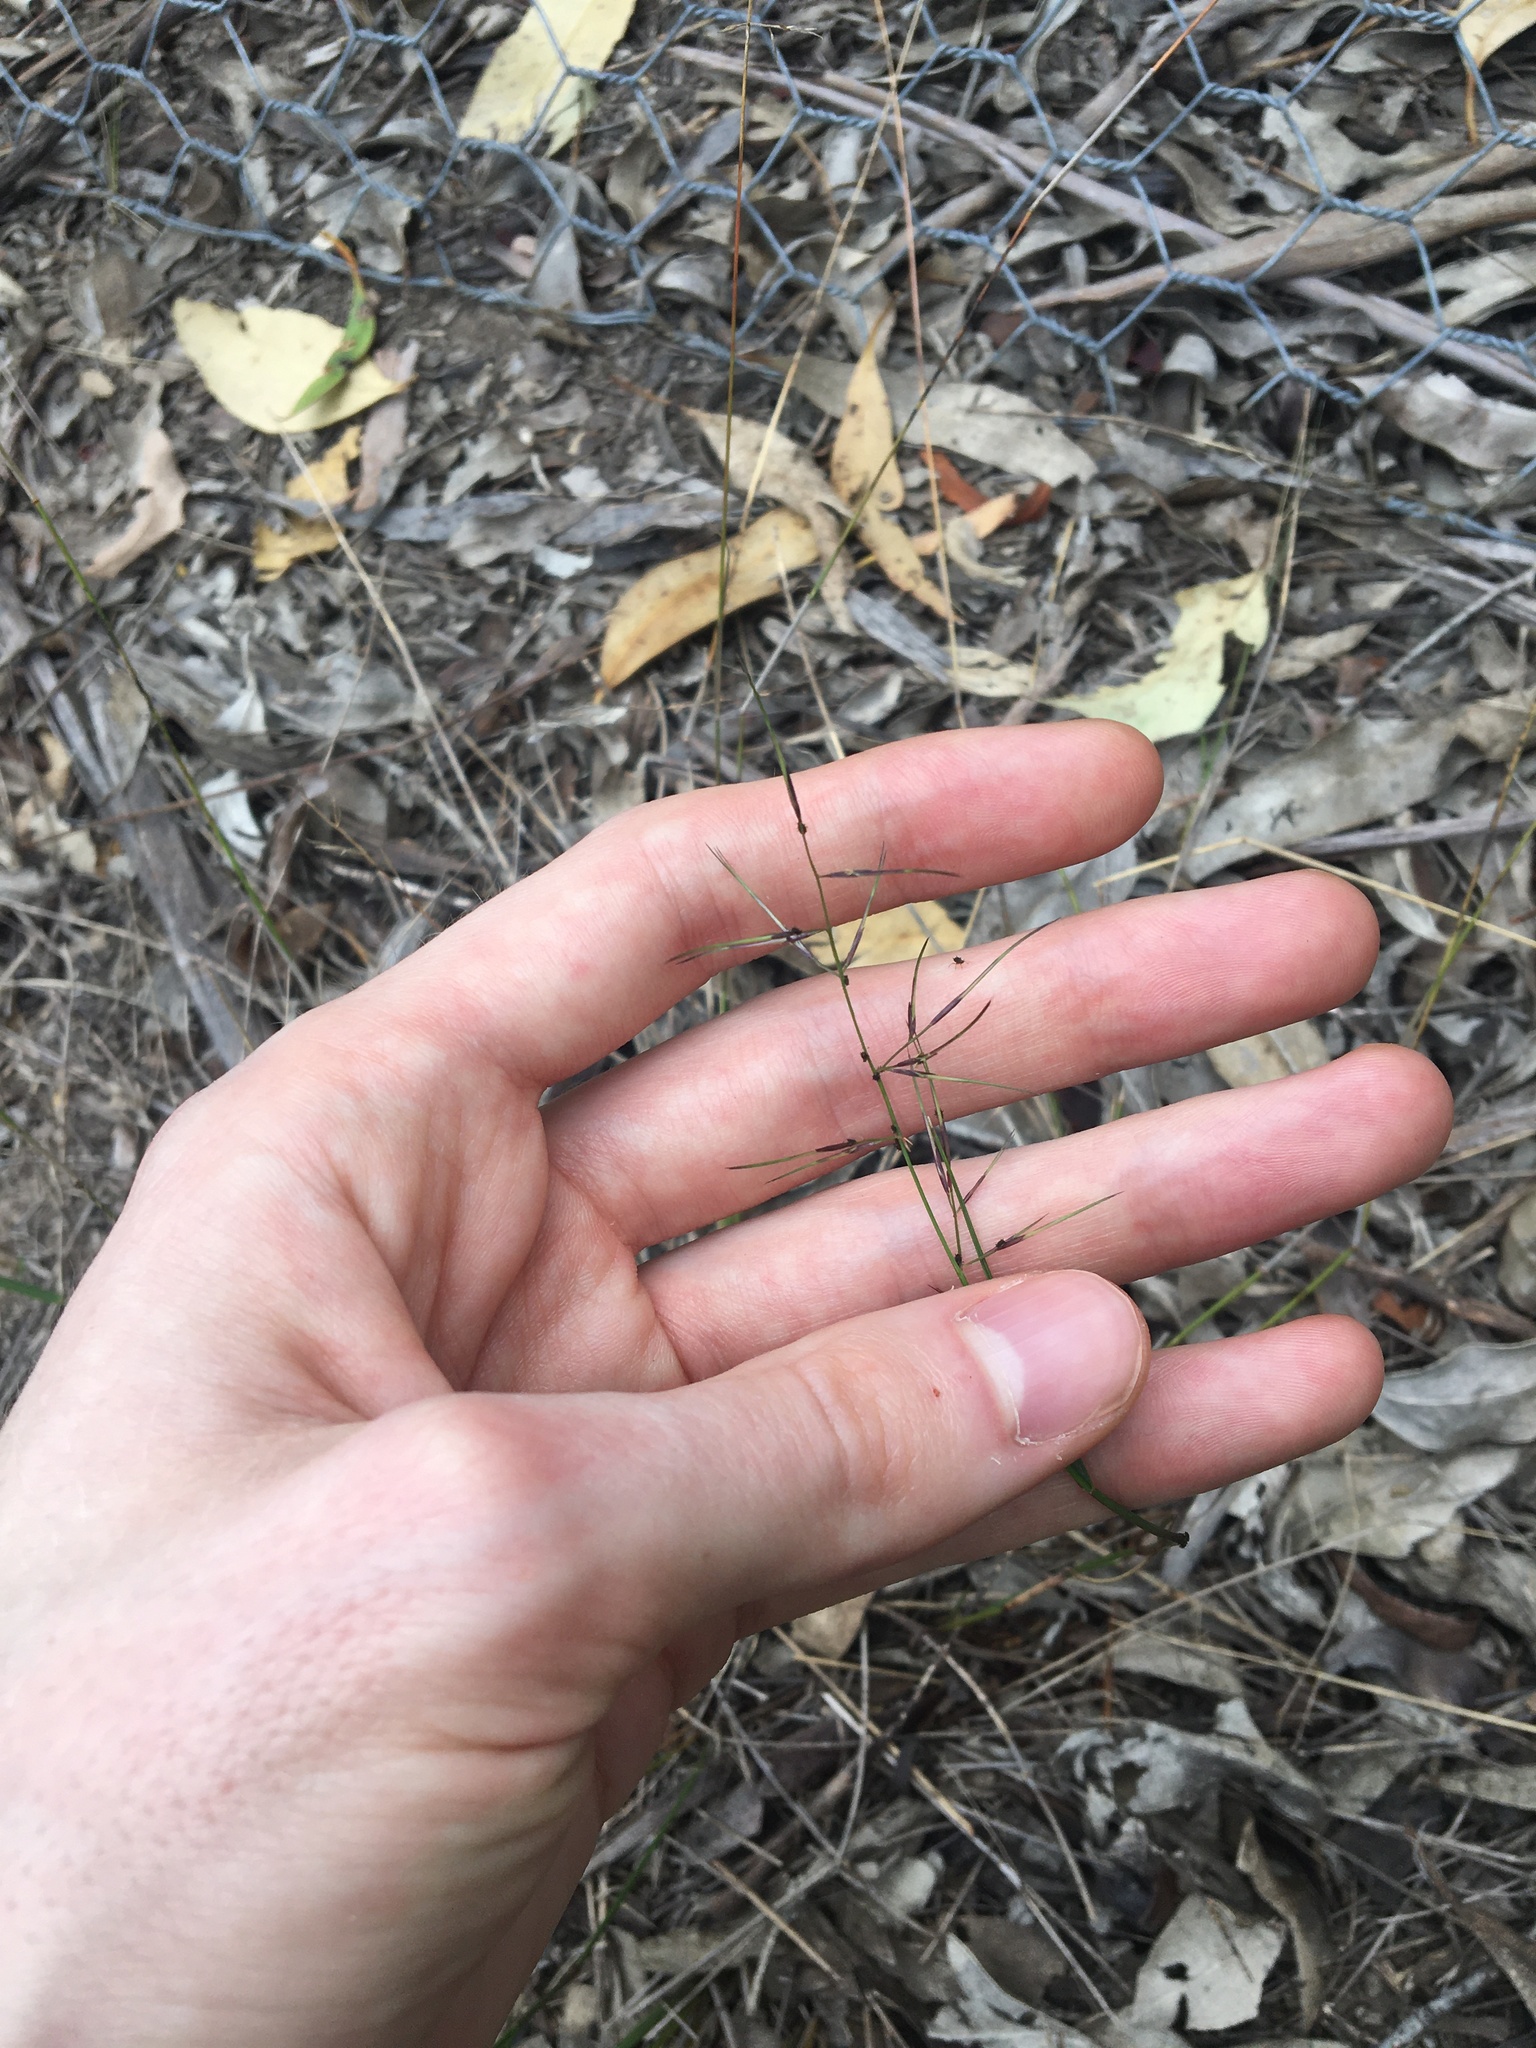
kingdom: Plantae
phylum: Tracheophyta
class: Liliopsida
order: Poales
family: Poaceae
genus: Aristida
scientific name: Aristida vagans
